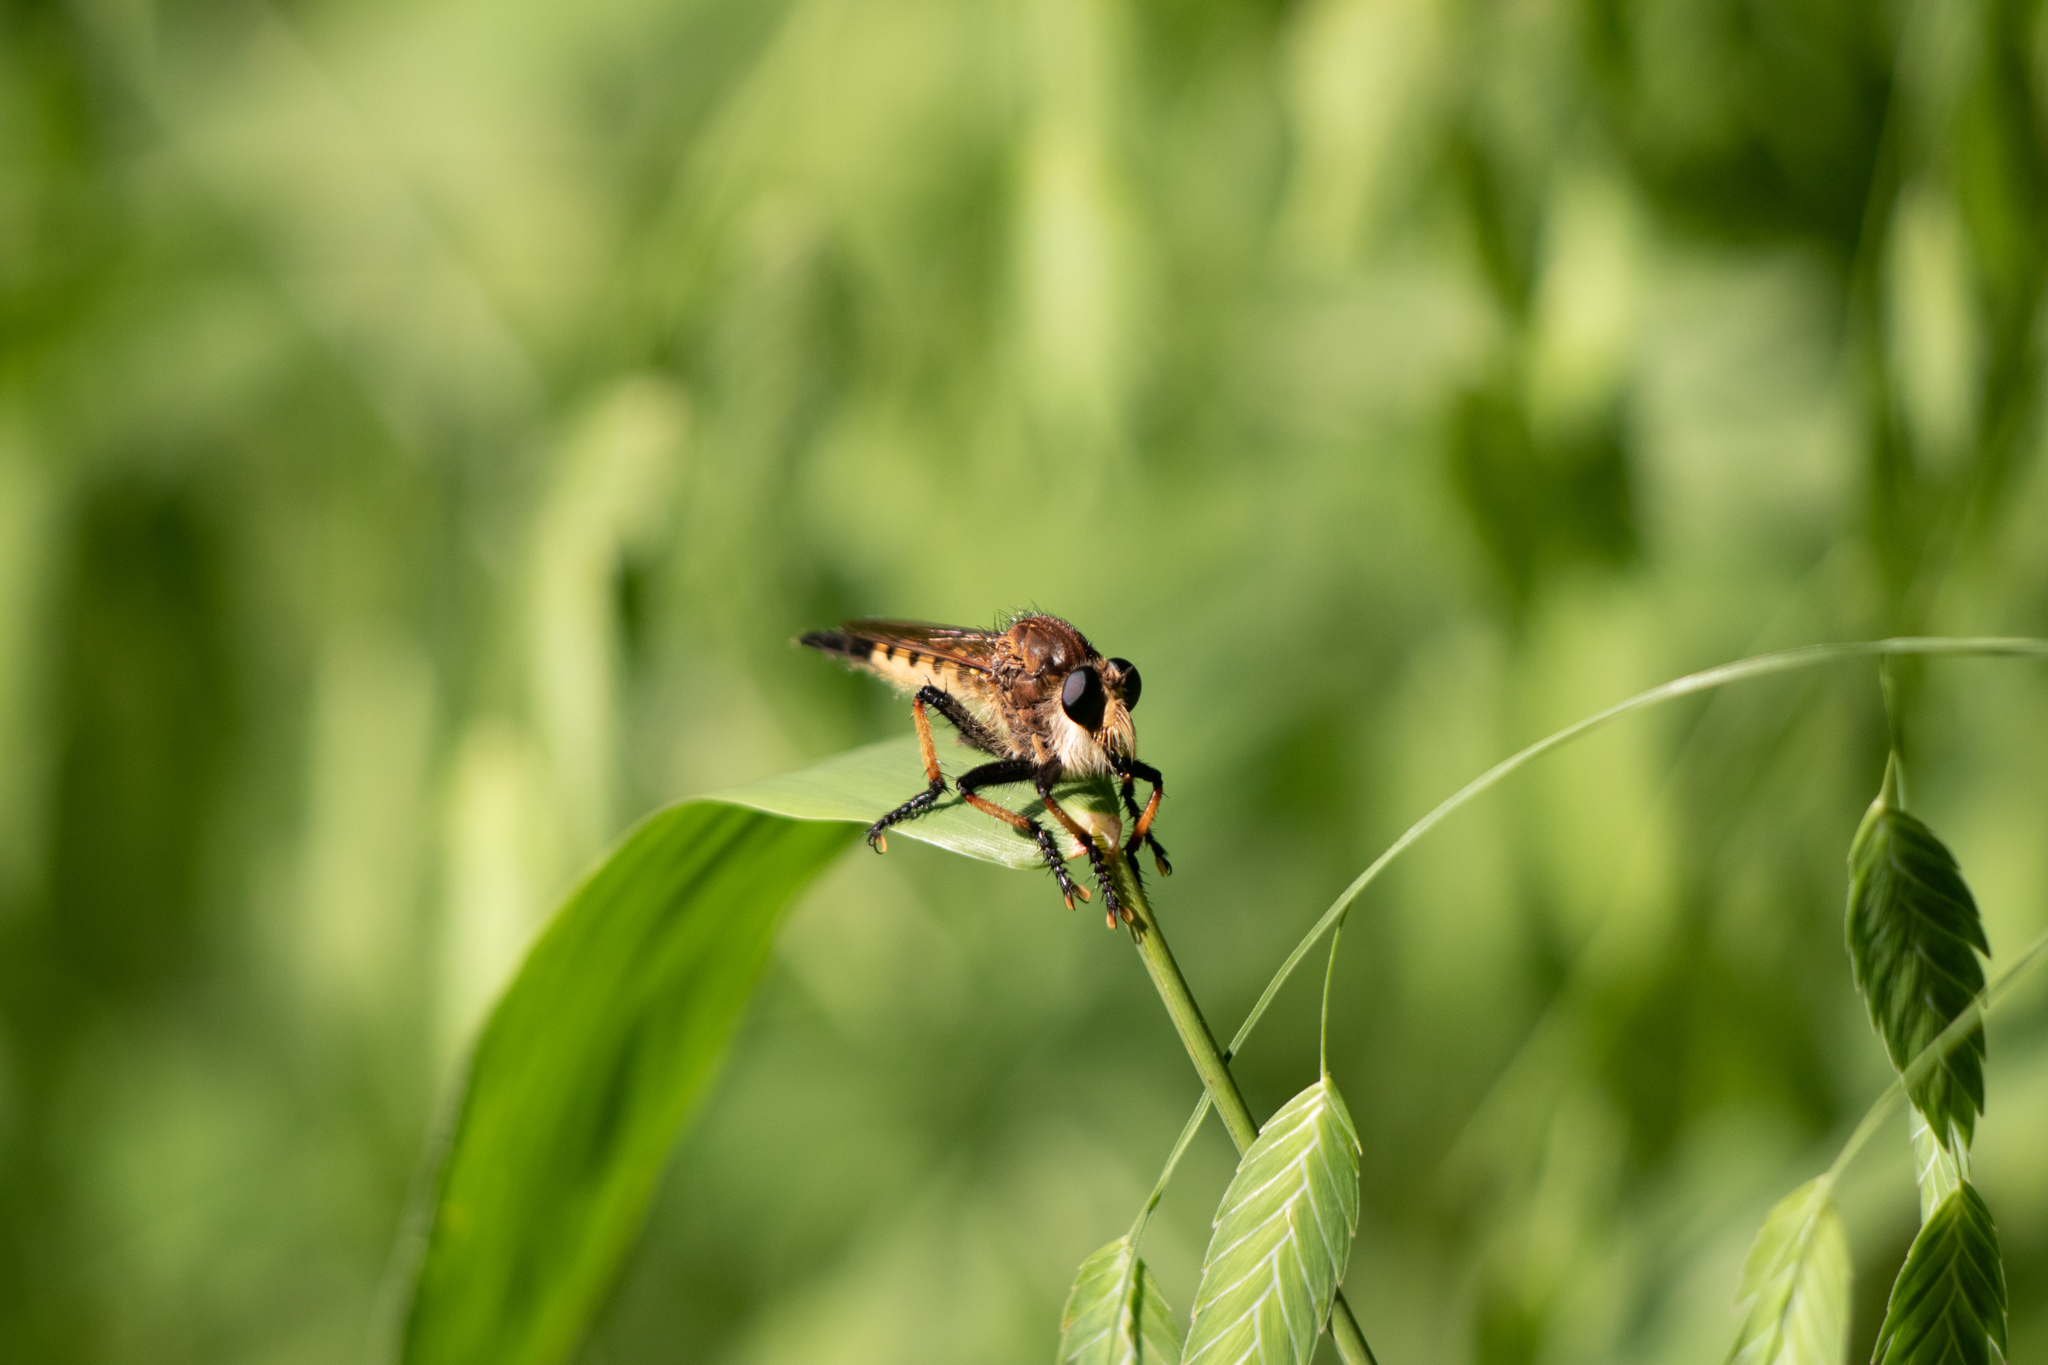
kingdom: Animalia
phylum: Arthropoda
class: Insecta
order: Diptera
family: Asilidae
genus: Promachus
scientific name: Promachus rufipes
